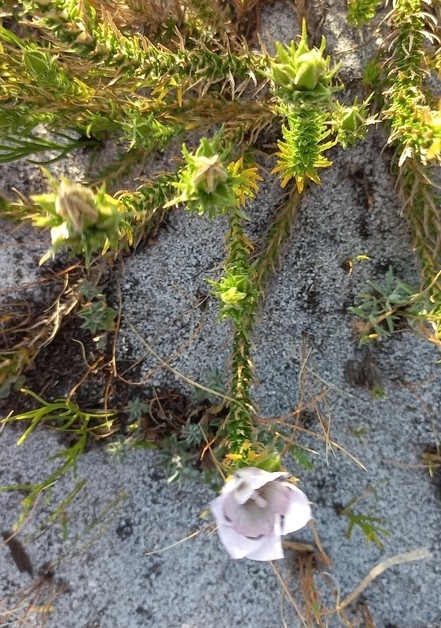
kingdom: Plantae
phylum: Tracheophyta
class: Magnoliopsida
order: Asterales
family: Campanulaceae
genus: Roella
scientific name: Roella maculata
